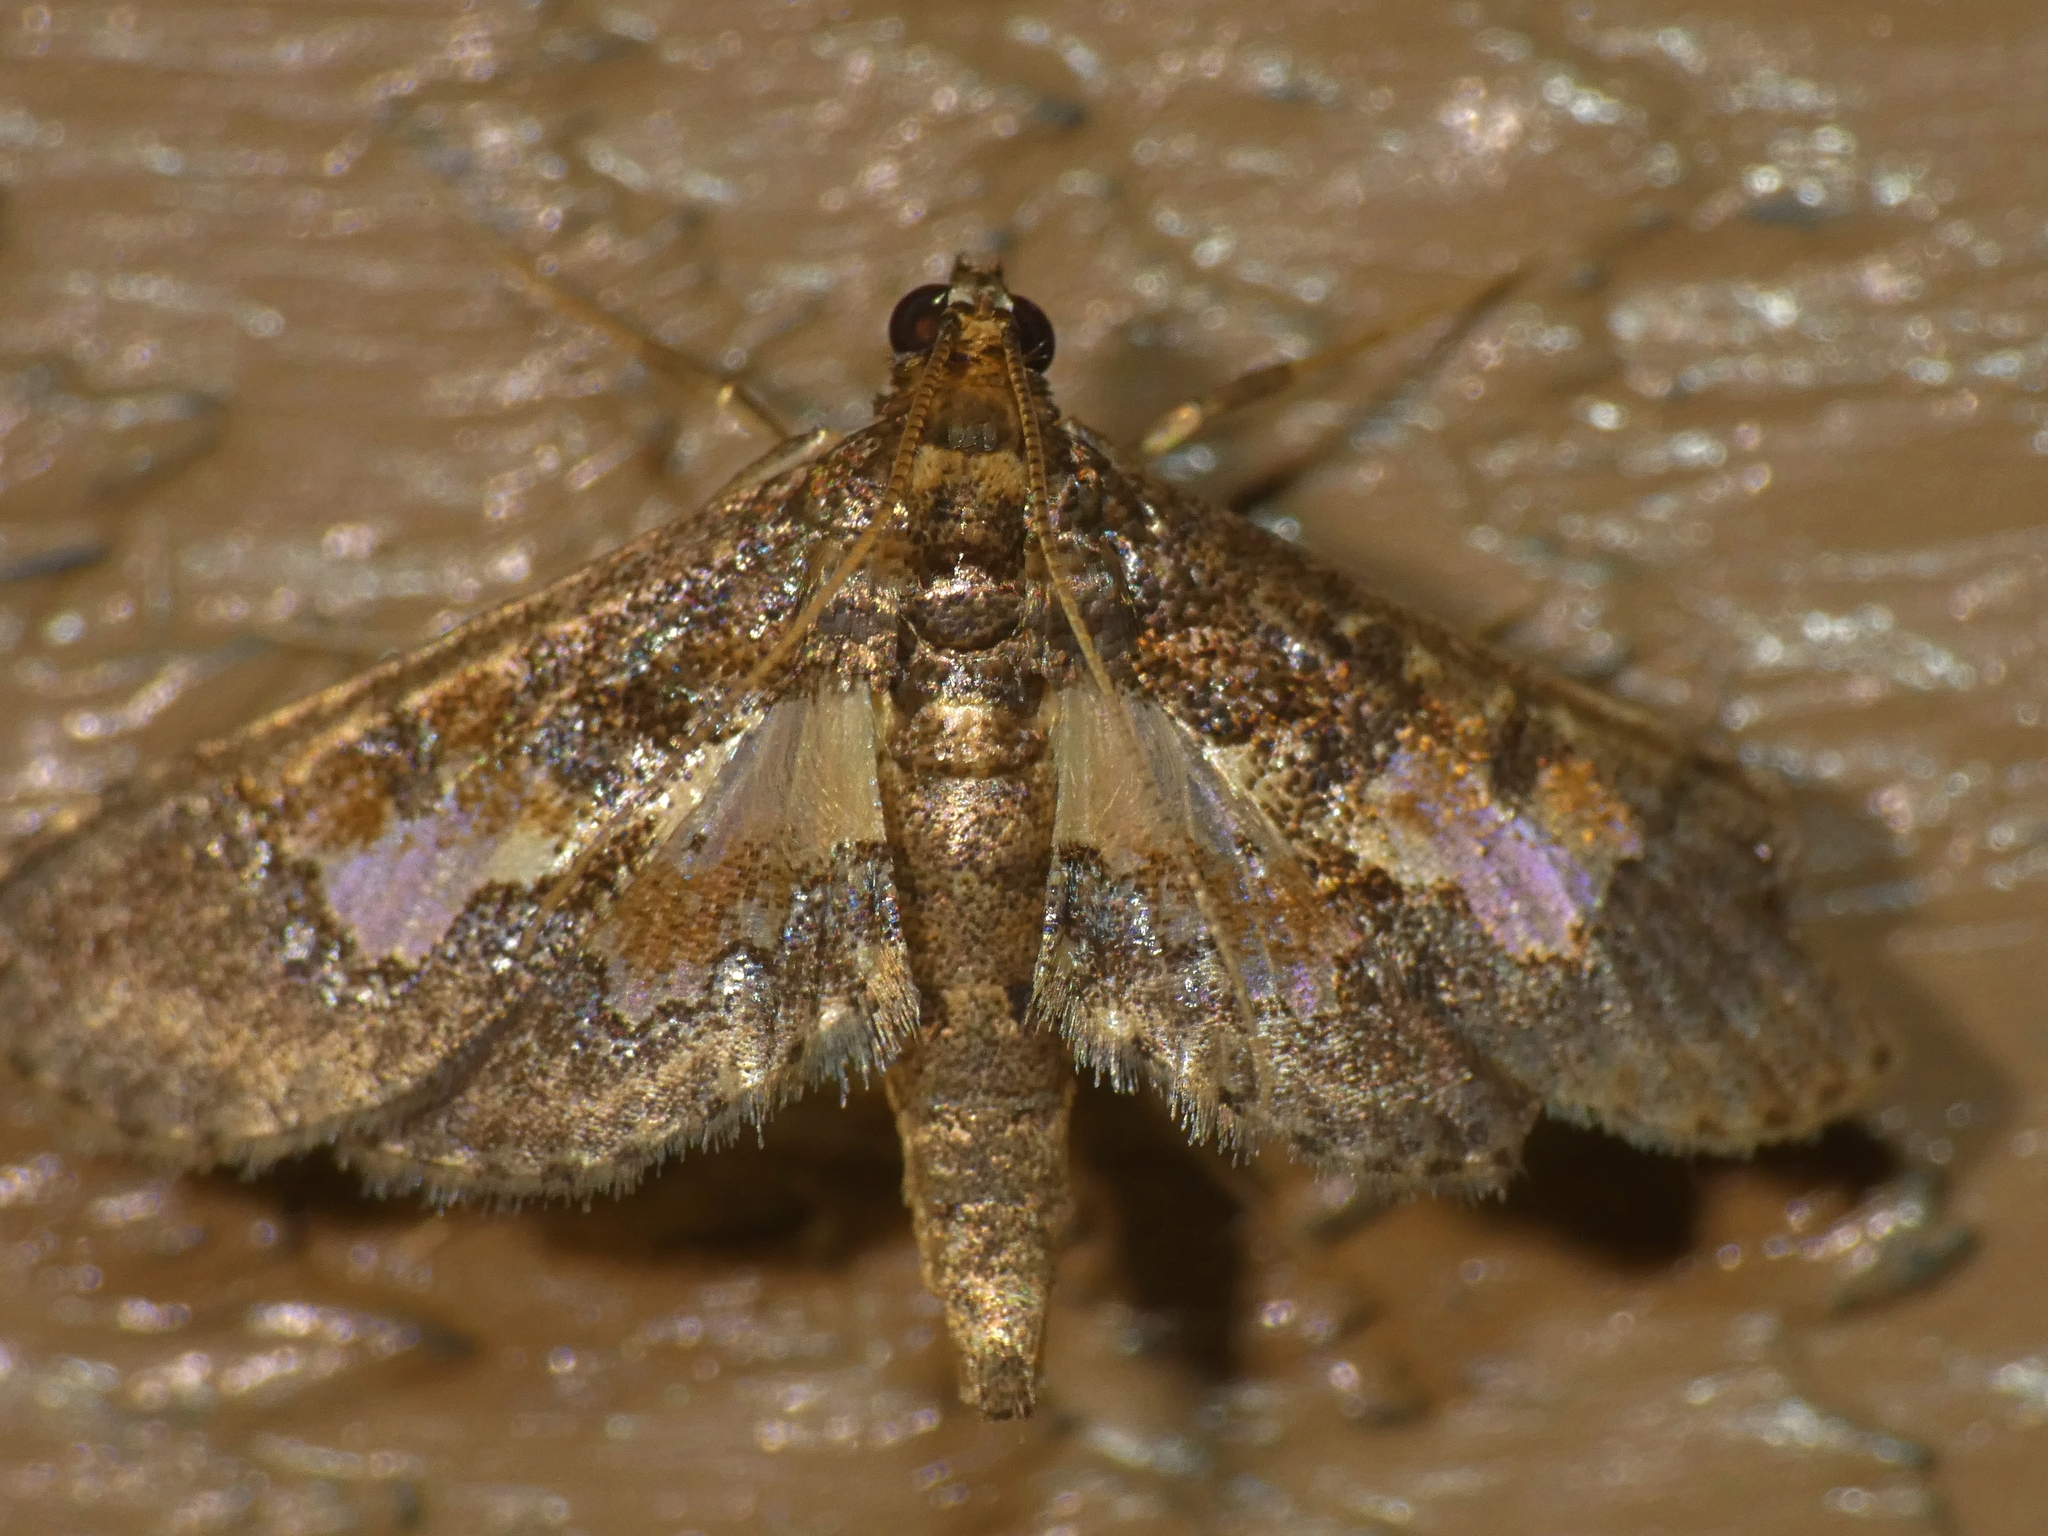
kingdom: Animalia
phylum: Arthropoda
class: Insecta
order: Lepidoptera
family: Crambidae
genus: Hydriris
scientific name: Hydriris ornatalis
